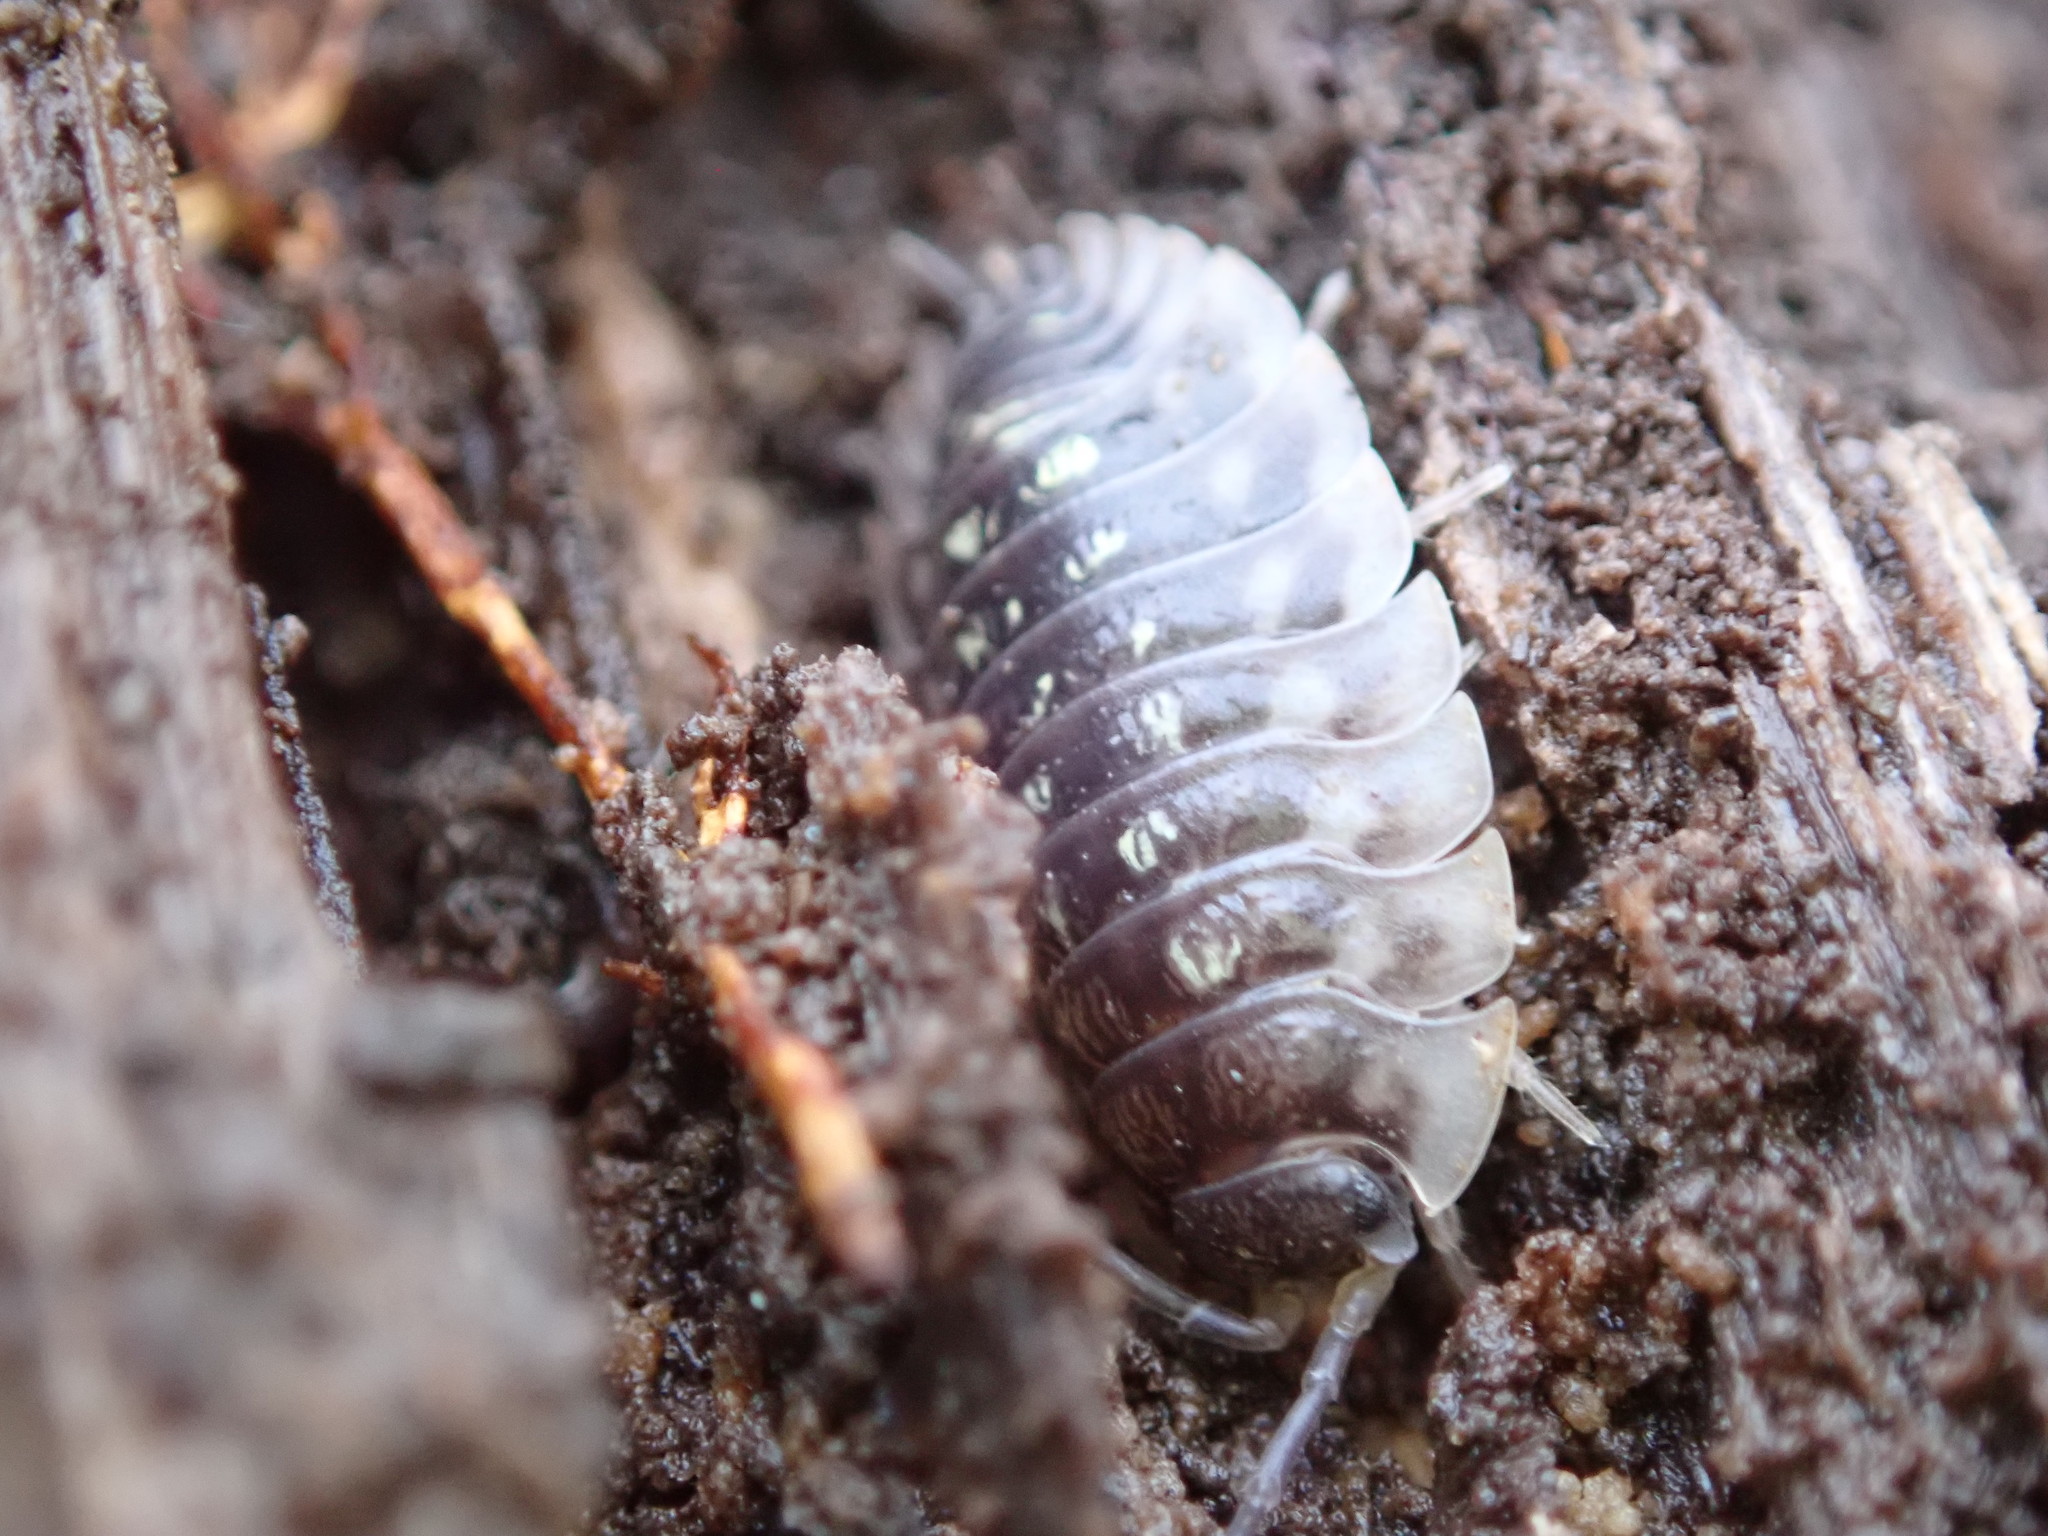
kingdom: Animalia
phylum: Arthropoda
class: Malacostraca
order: Isopoda
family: Oniscidae
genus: Oniscus
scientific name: Oniscus asellus
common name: Common shiny woodlouse
